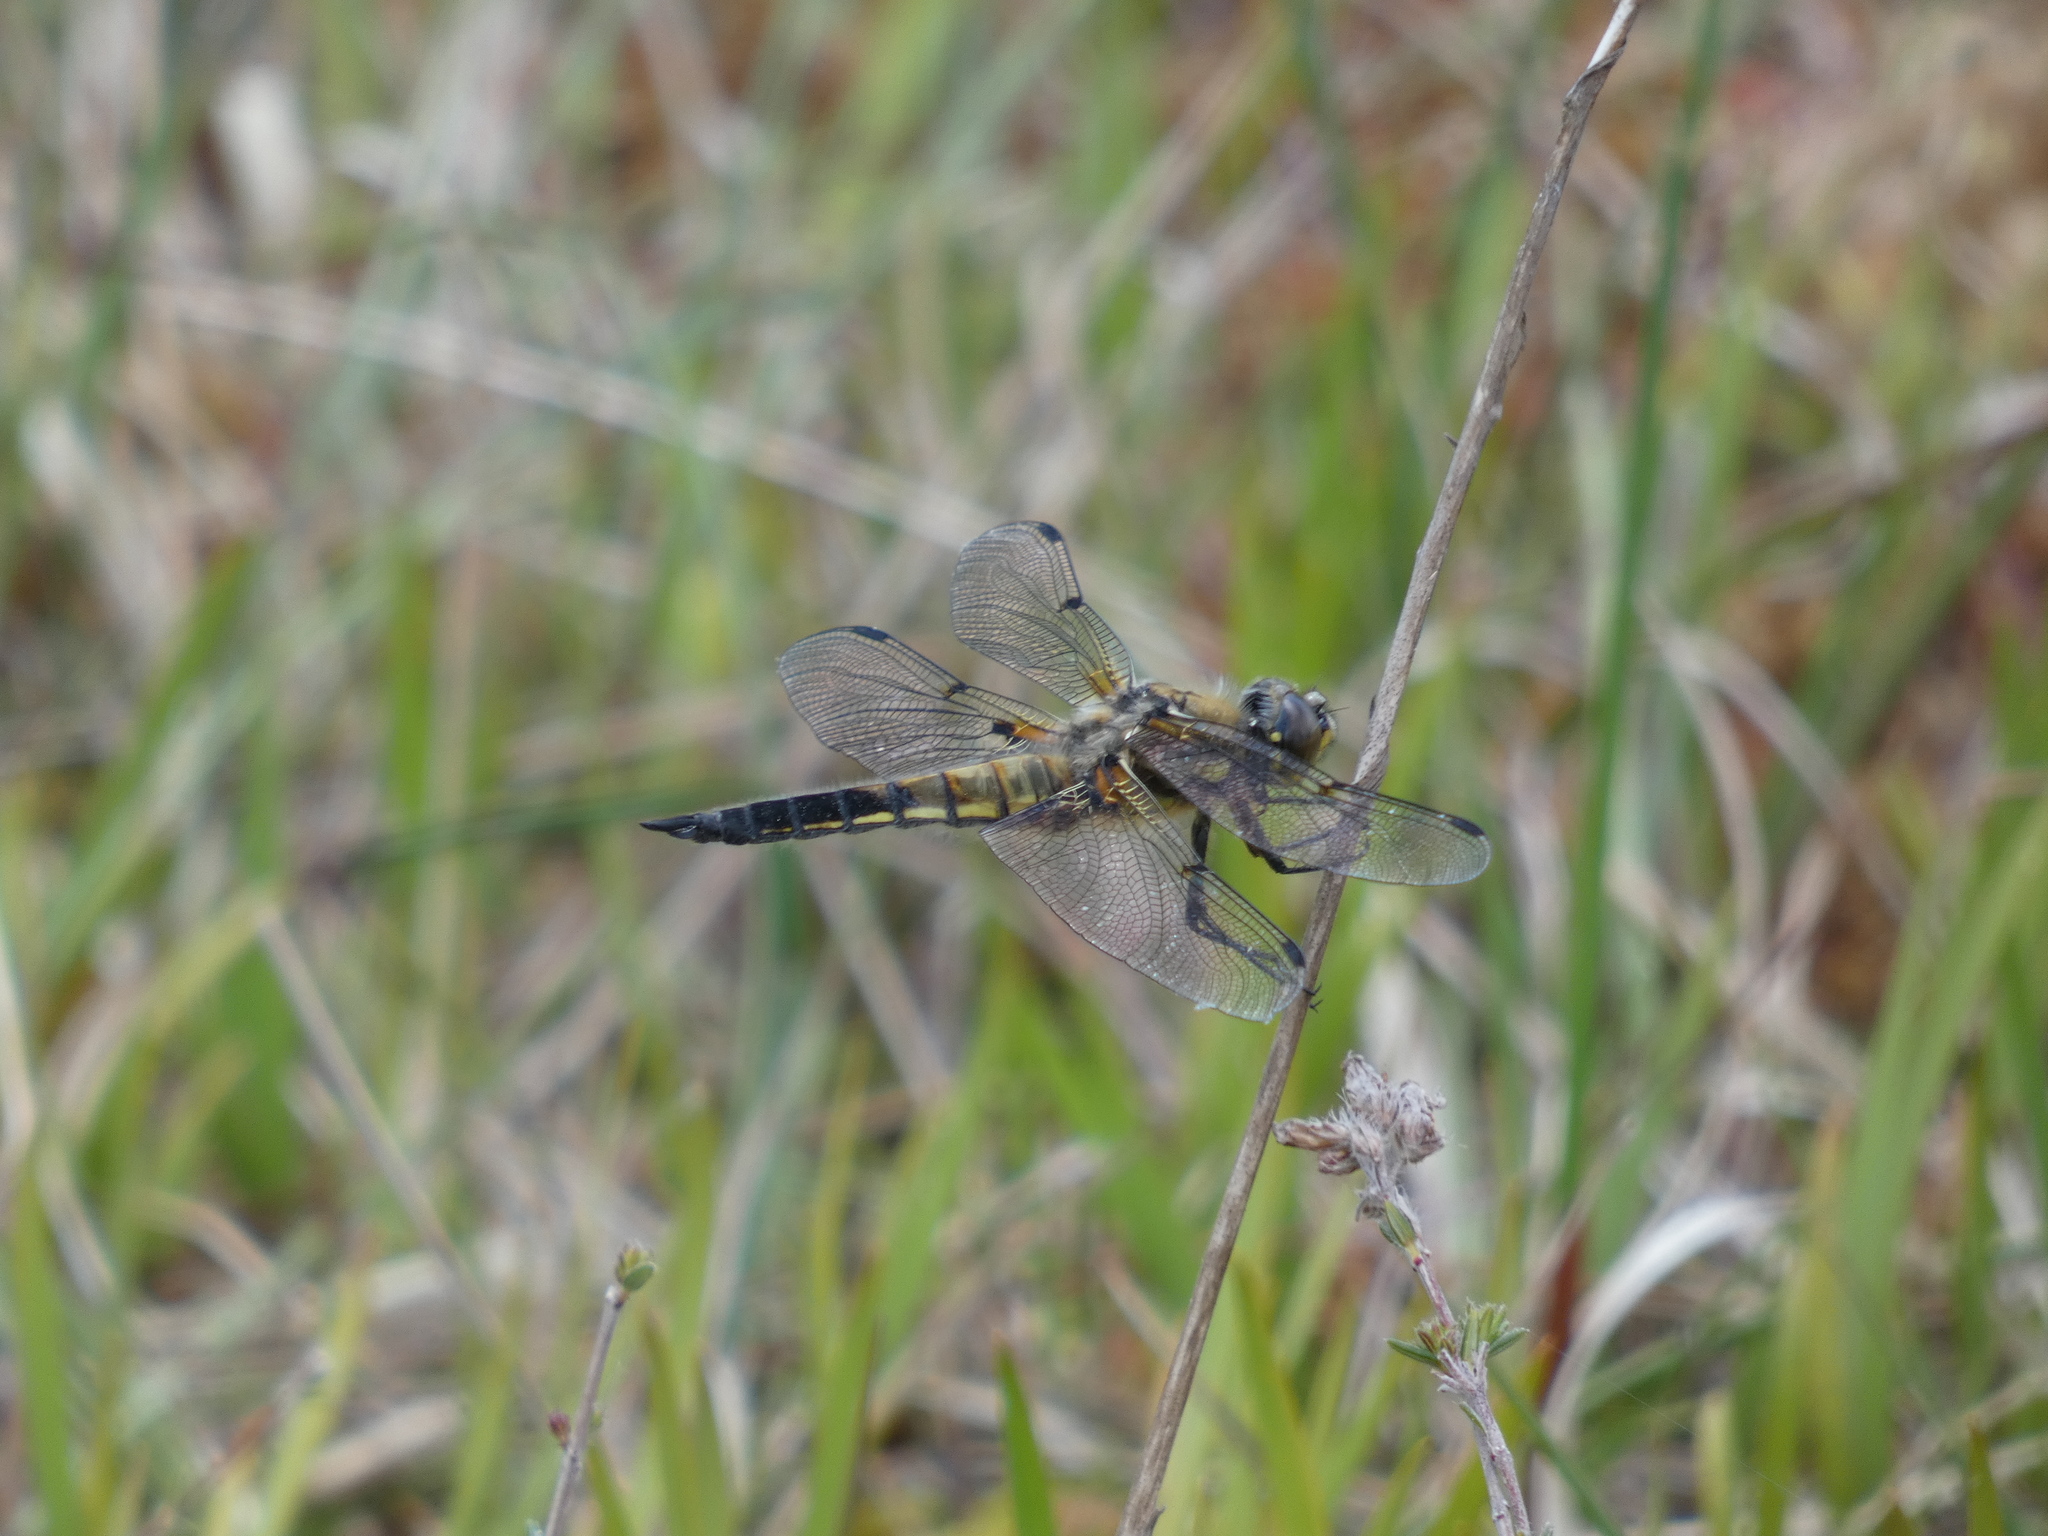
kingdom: Animalia
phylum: Arthropoda
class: Insecta
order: Odonata
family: Libellulidae
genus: Libellula
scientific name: Libellula quadrimaculata
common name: Four-spotted chaser
